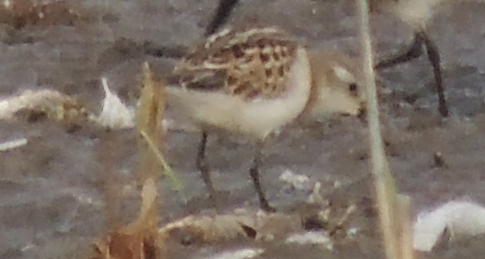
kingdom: Animalia
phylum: Chordata
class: Aves
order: Charadriiformes
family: Scolopacidae
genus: Calidris
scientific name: Calidris minuta
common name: Little stint
